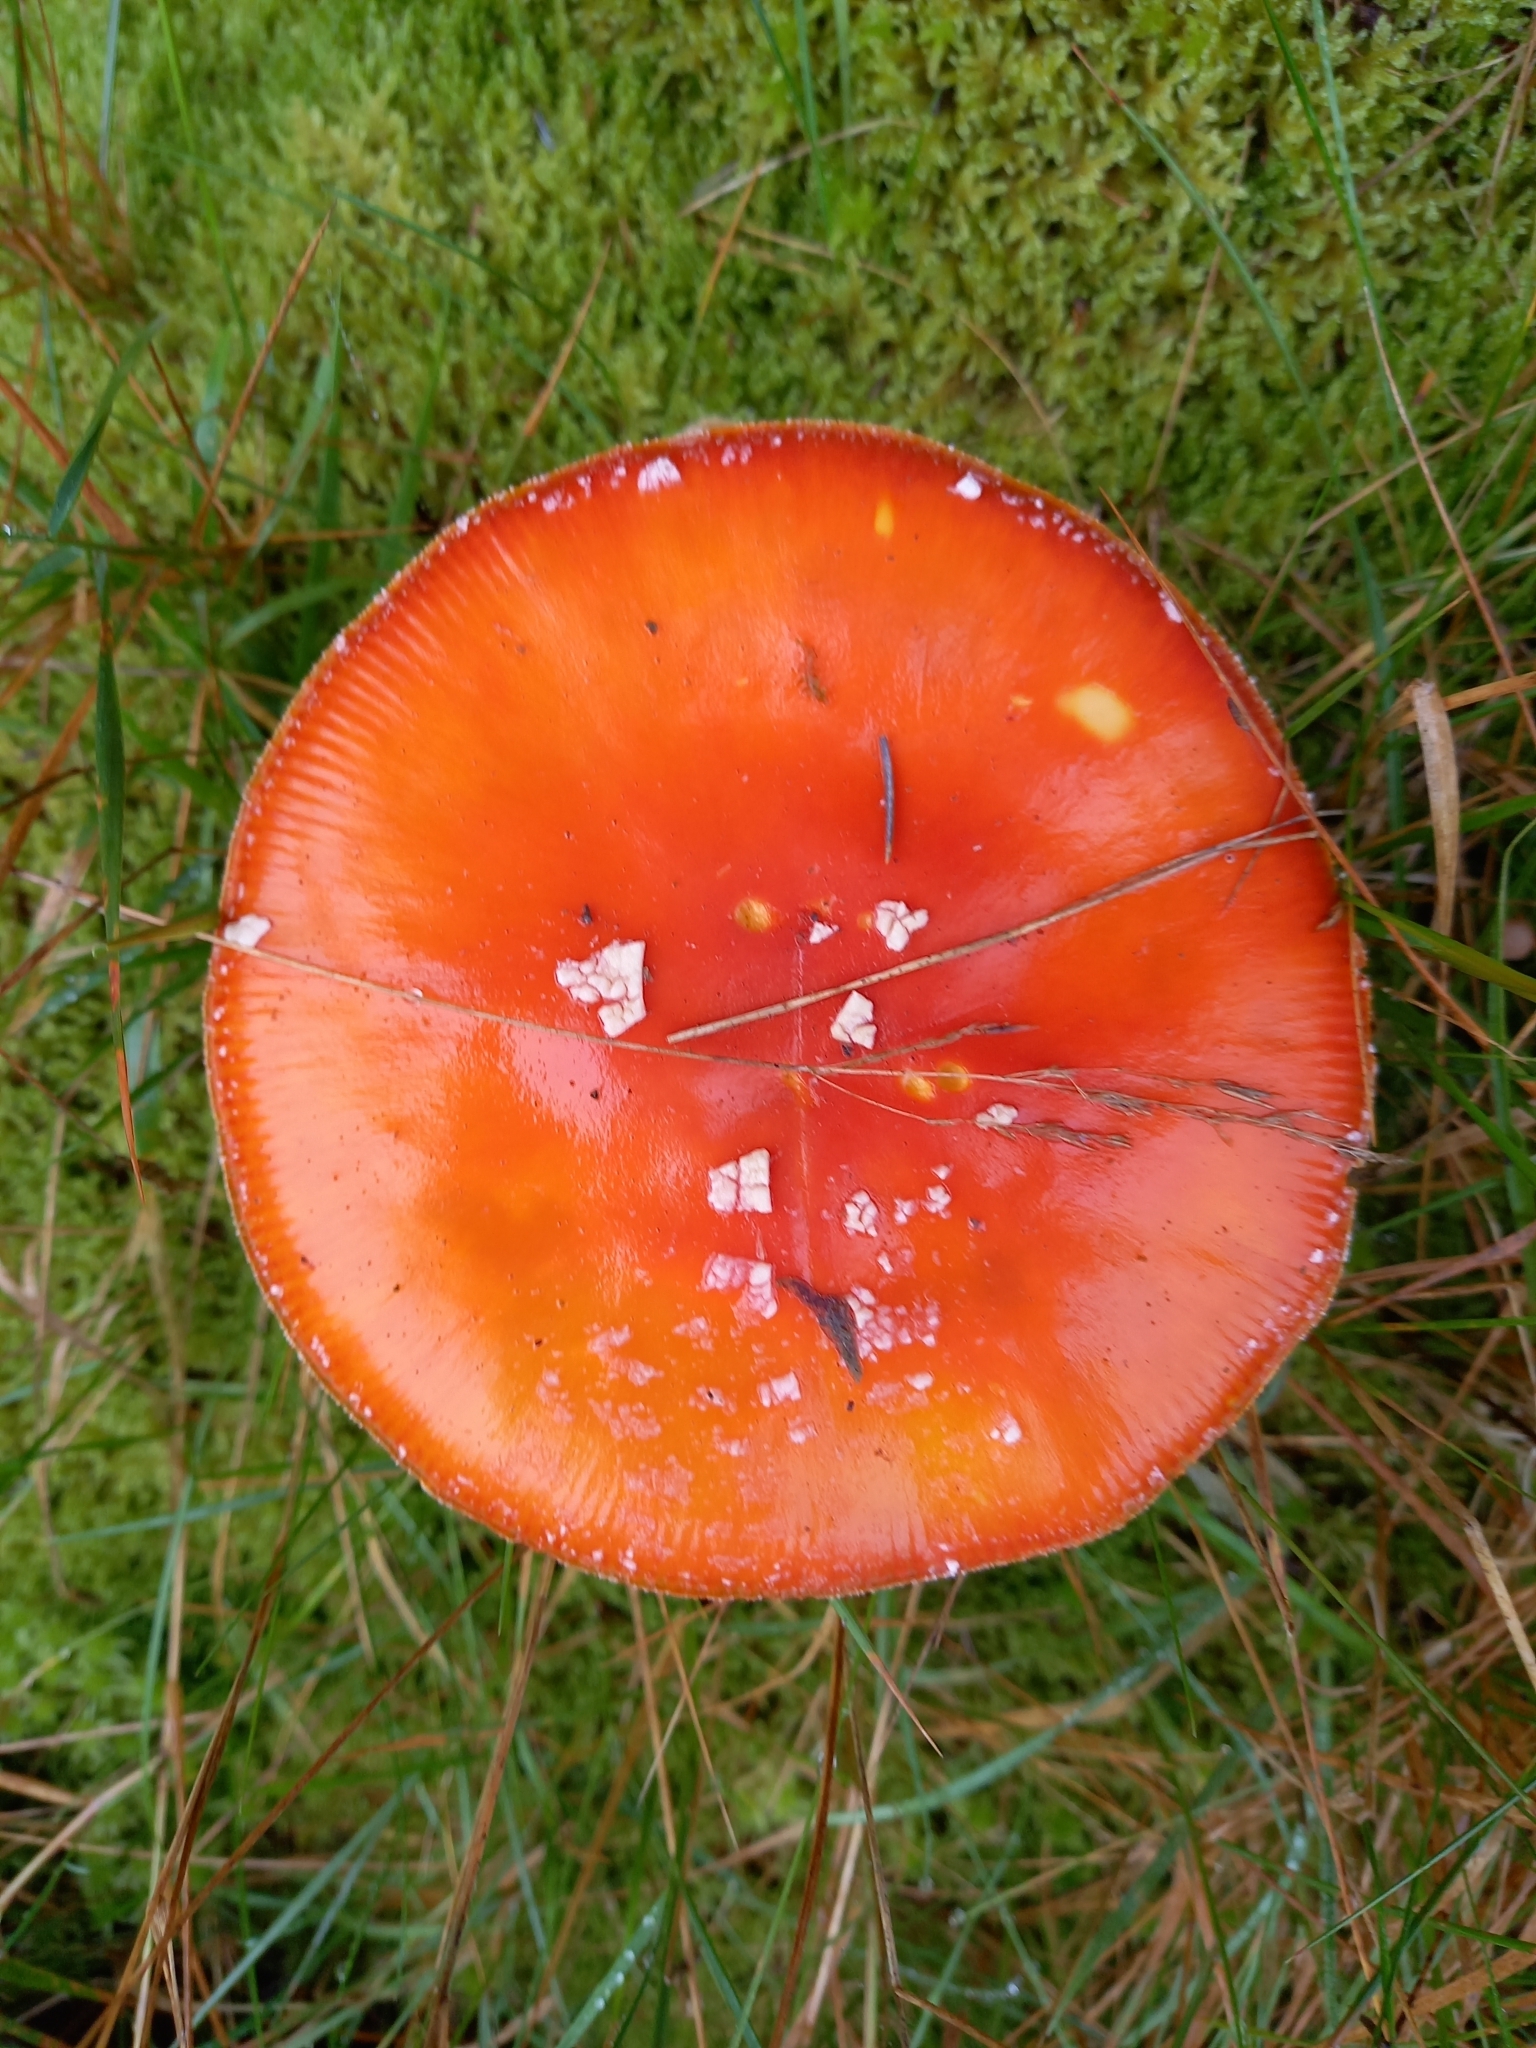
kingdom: Fungi
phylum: Basidiomycota
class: Agaricomycetes
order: Agaricales
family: Amanitaceae
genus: Amanita
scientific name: Amanita muscaria
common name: Fly agaric
